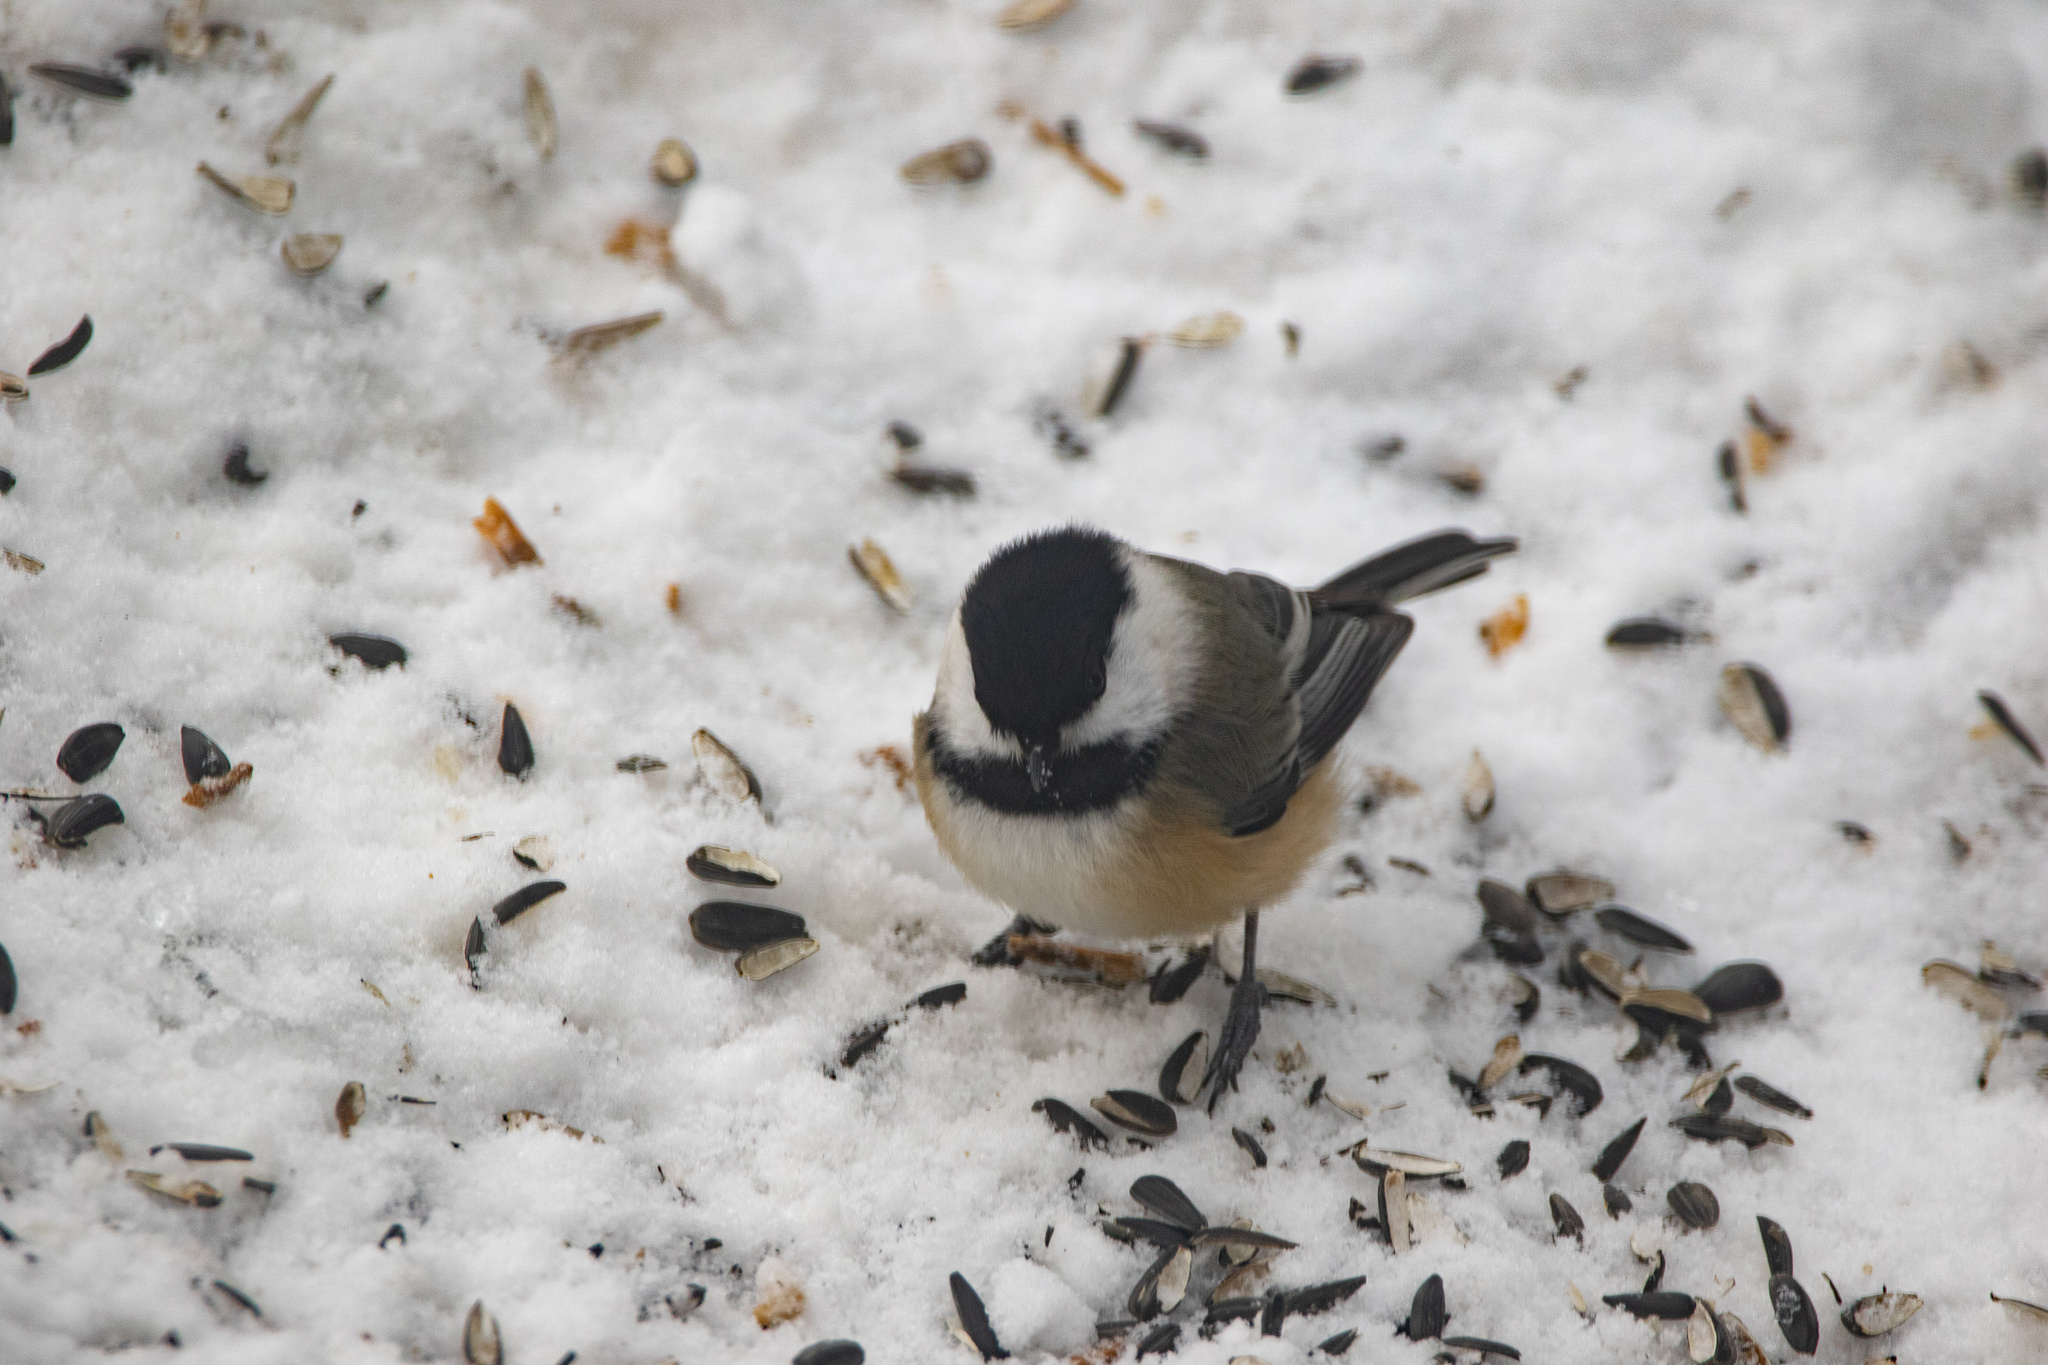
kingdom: Animalia
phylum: Chordata
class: Aves
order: Passeriformes
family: Paridae
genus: Poecile
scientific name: Poecile atricapillus
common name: Black-capped chickadee
